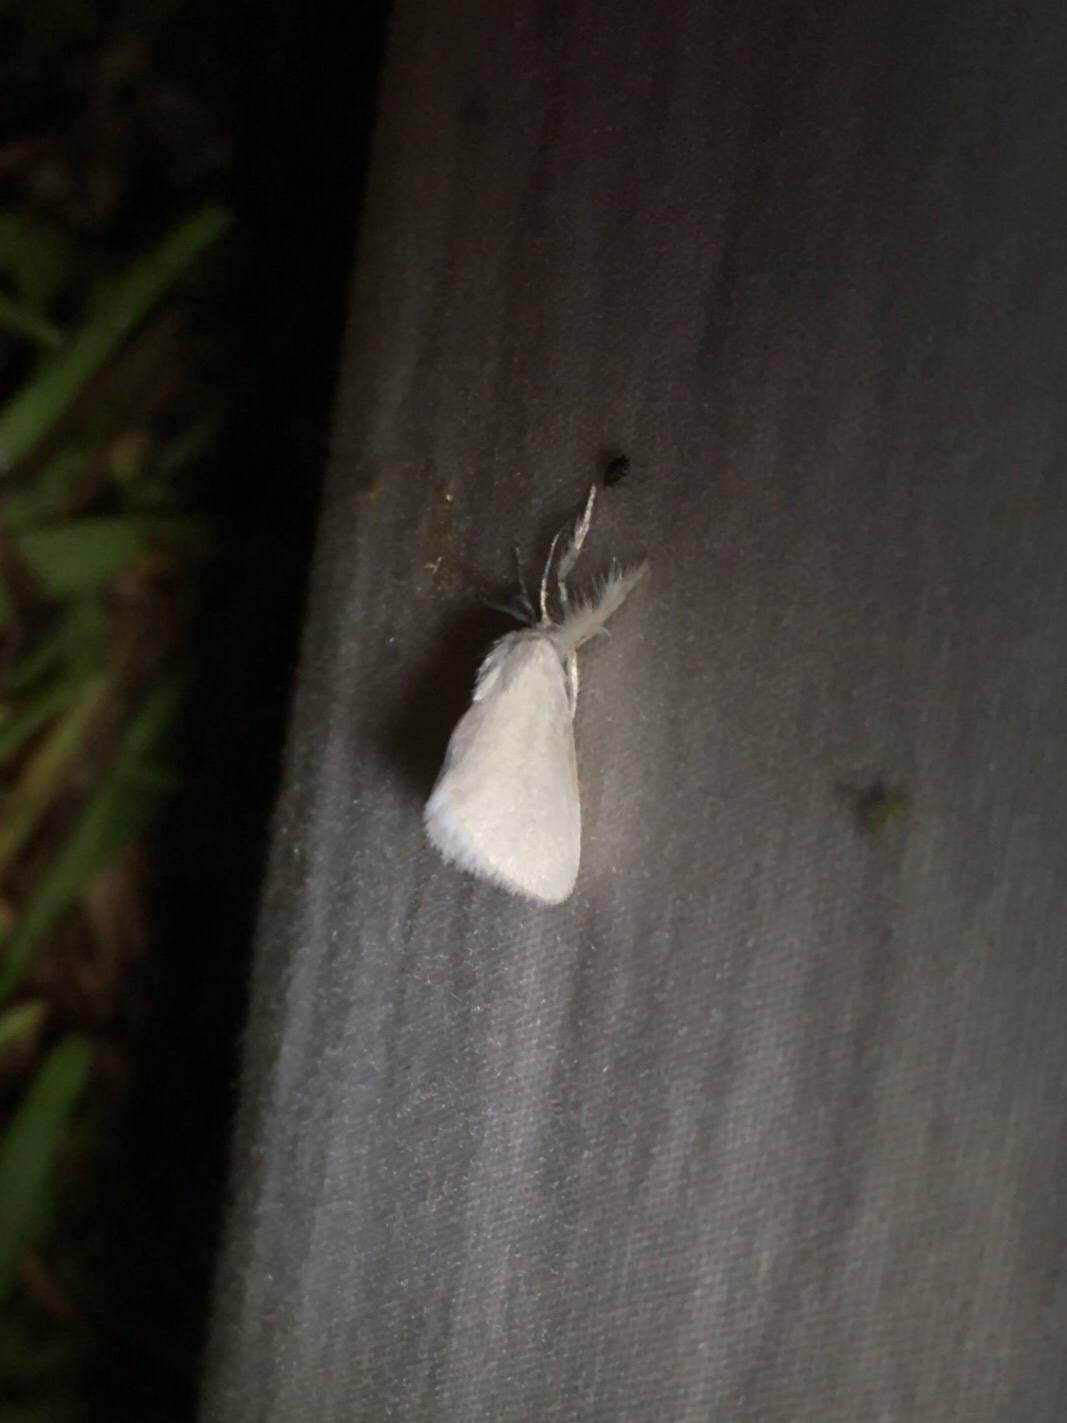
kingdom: Animalia
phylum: Arthropoda
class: Insecta
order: Lepidoptera
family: Limacodidae
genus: Alarodia
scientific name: Alarodia slossoniae
